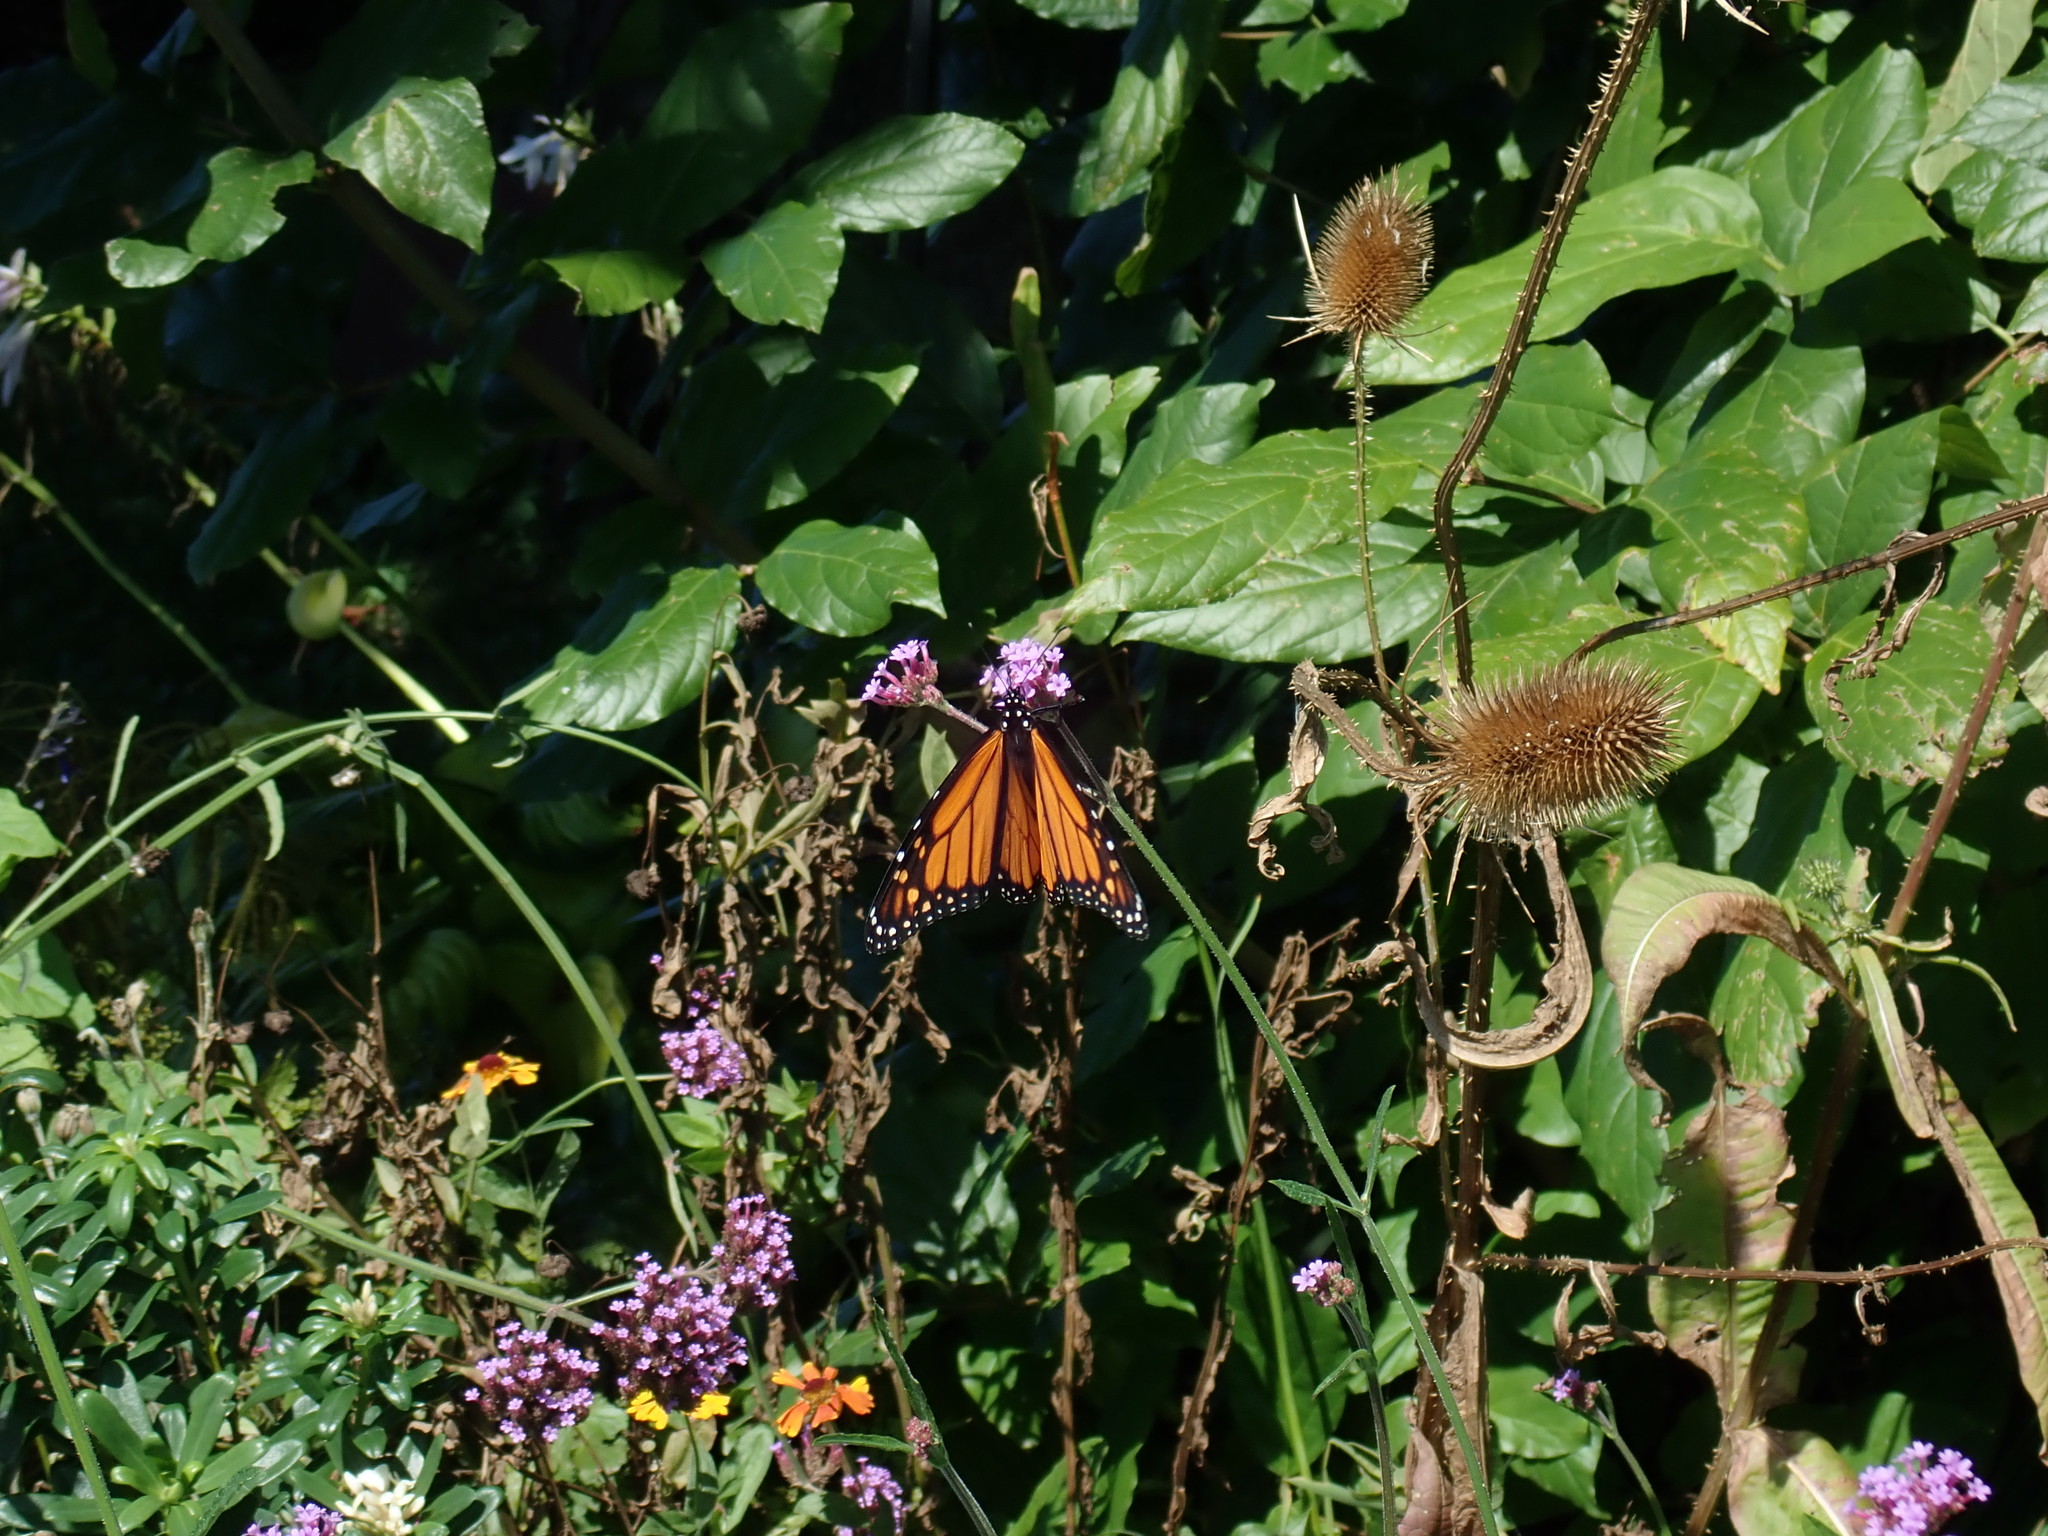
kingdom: Animalia
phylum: Arthropoda
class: Insecta
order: Lepidoptera
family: Nymphalidae
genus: Danaus
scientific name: Danaus plexippus
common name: Monarch
